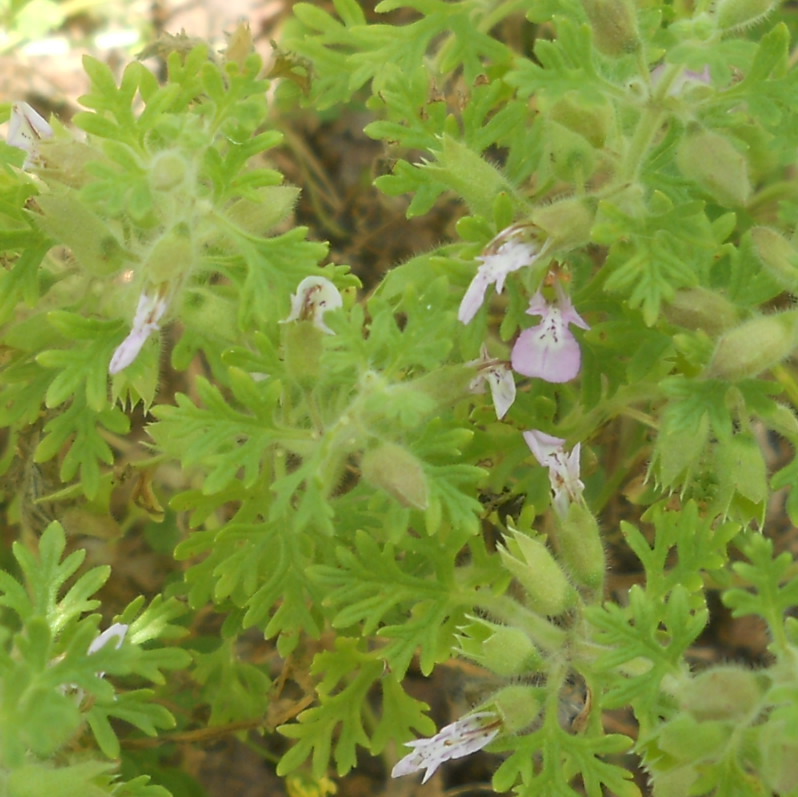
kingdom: Plantae
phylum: Tracheophyta
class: Magnoliopsida
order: Lamiales
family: Lamiaceae
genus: Teucrium
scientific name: Teucrium botrys
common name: Cut-leaved germander
